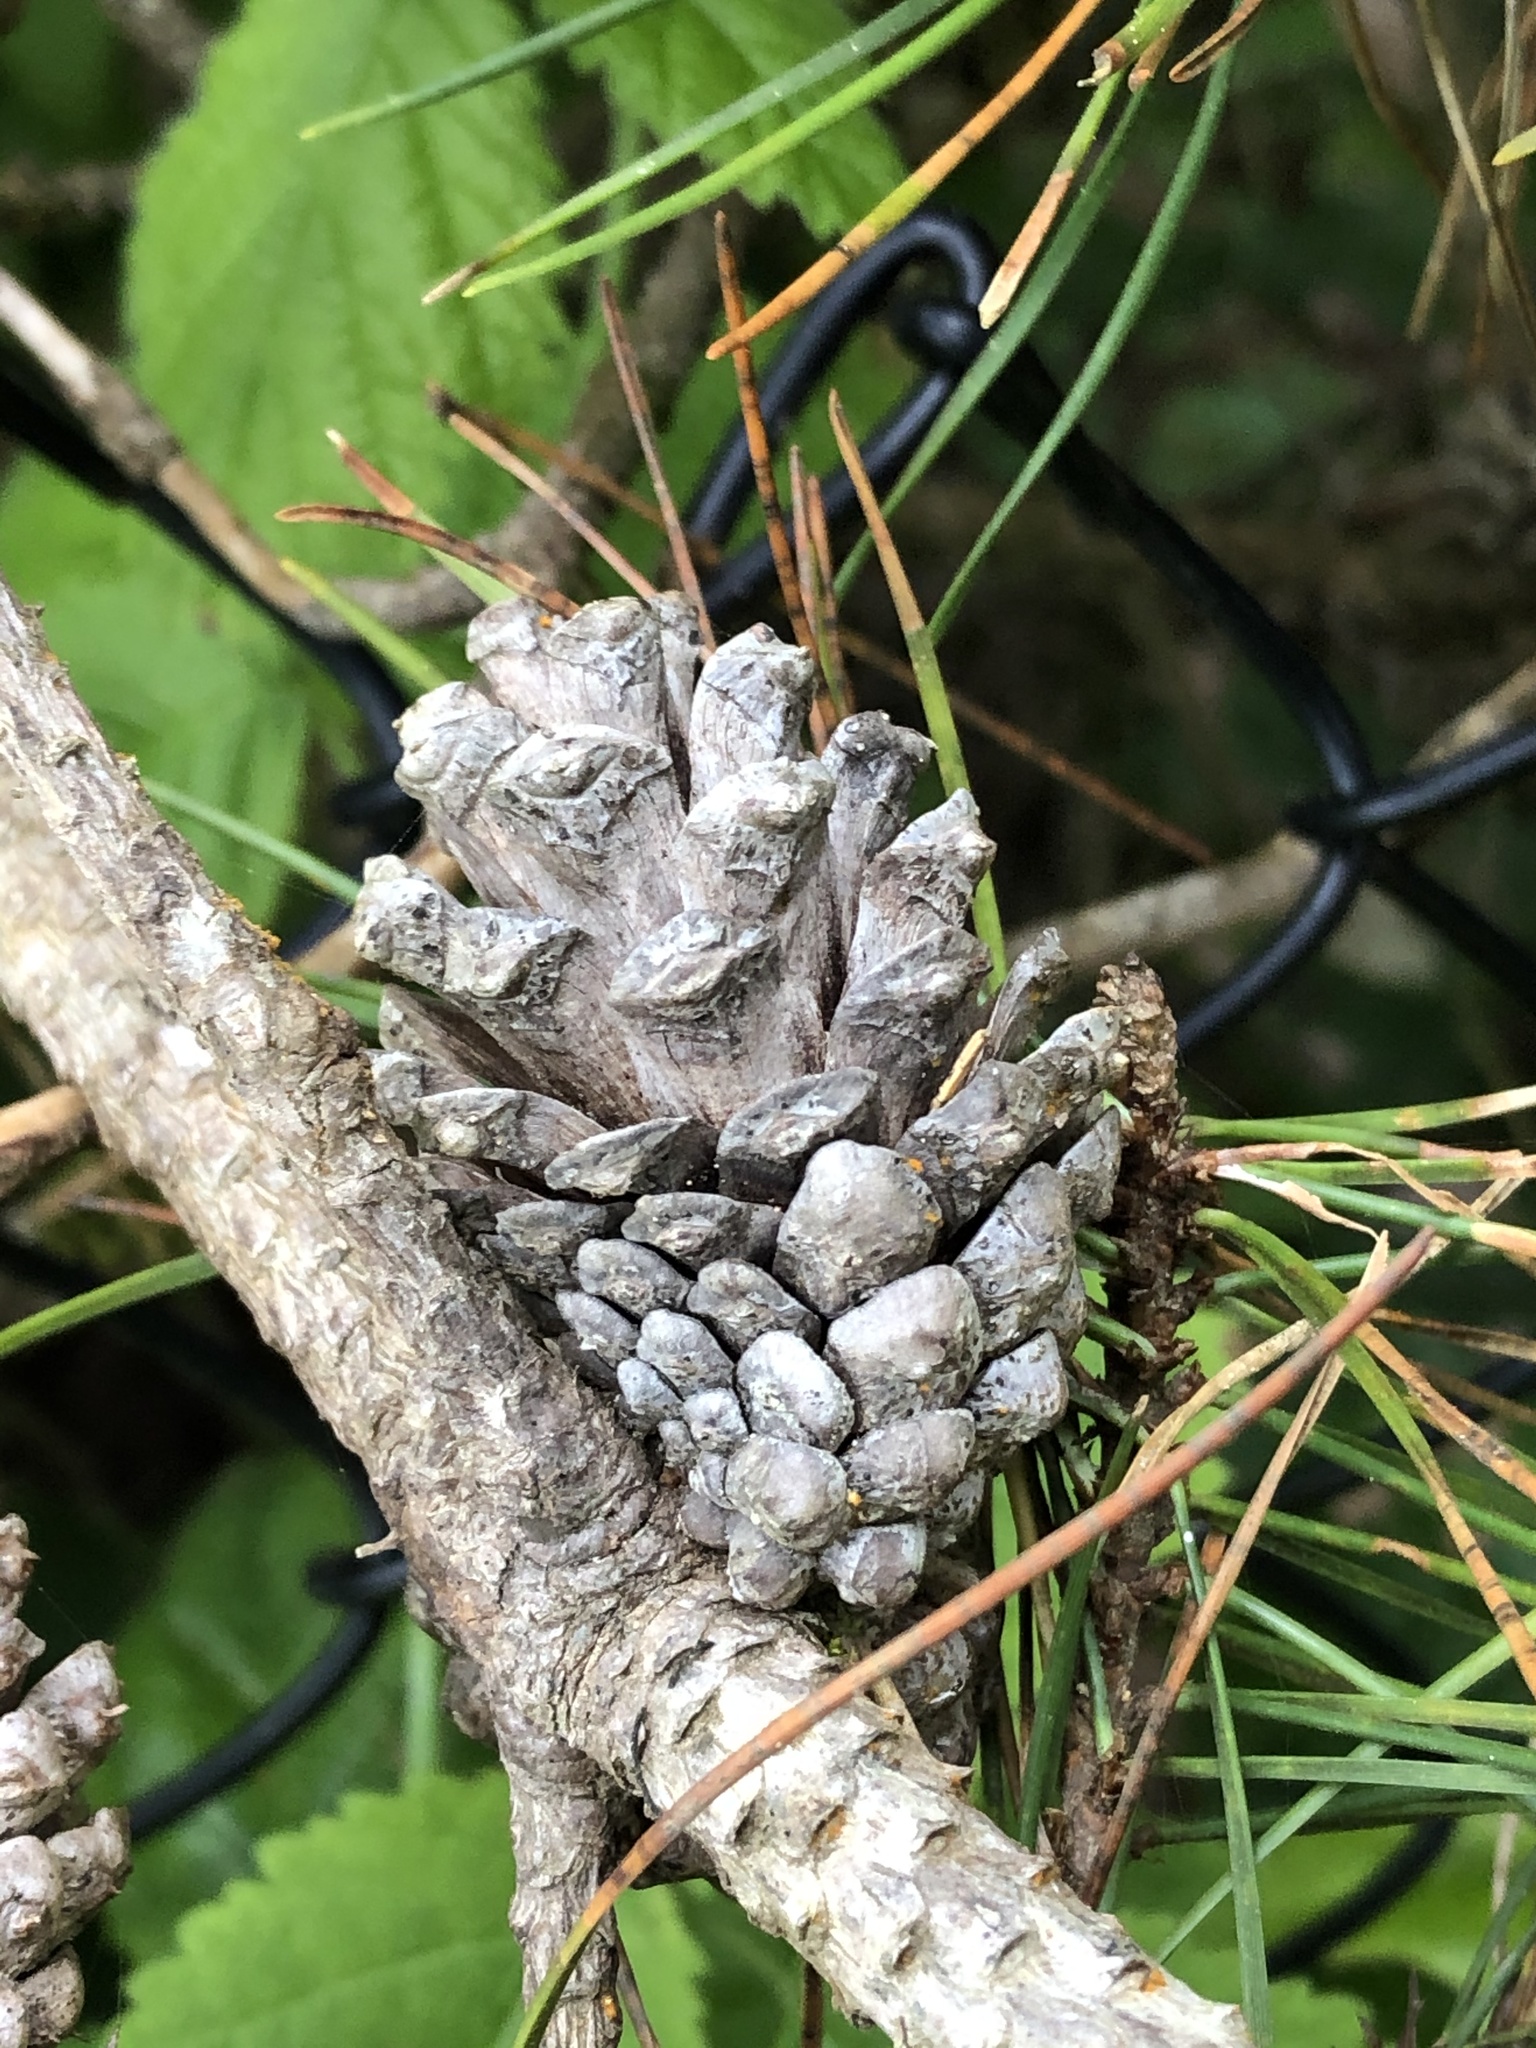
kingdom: Plantae
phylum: Tracheophyta
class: Pinopsida
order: Pinales
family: Pinaceae
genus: Pinus
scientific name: Pinus contorta
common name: Lodgepole pine
